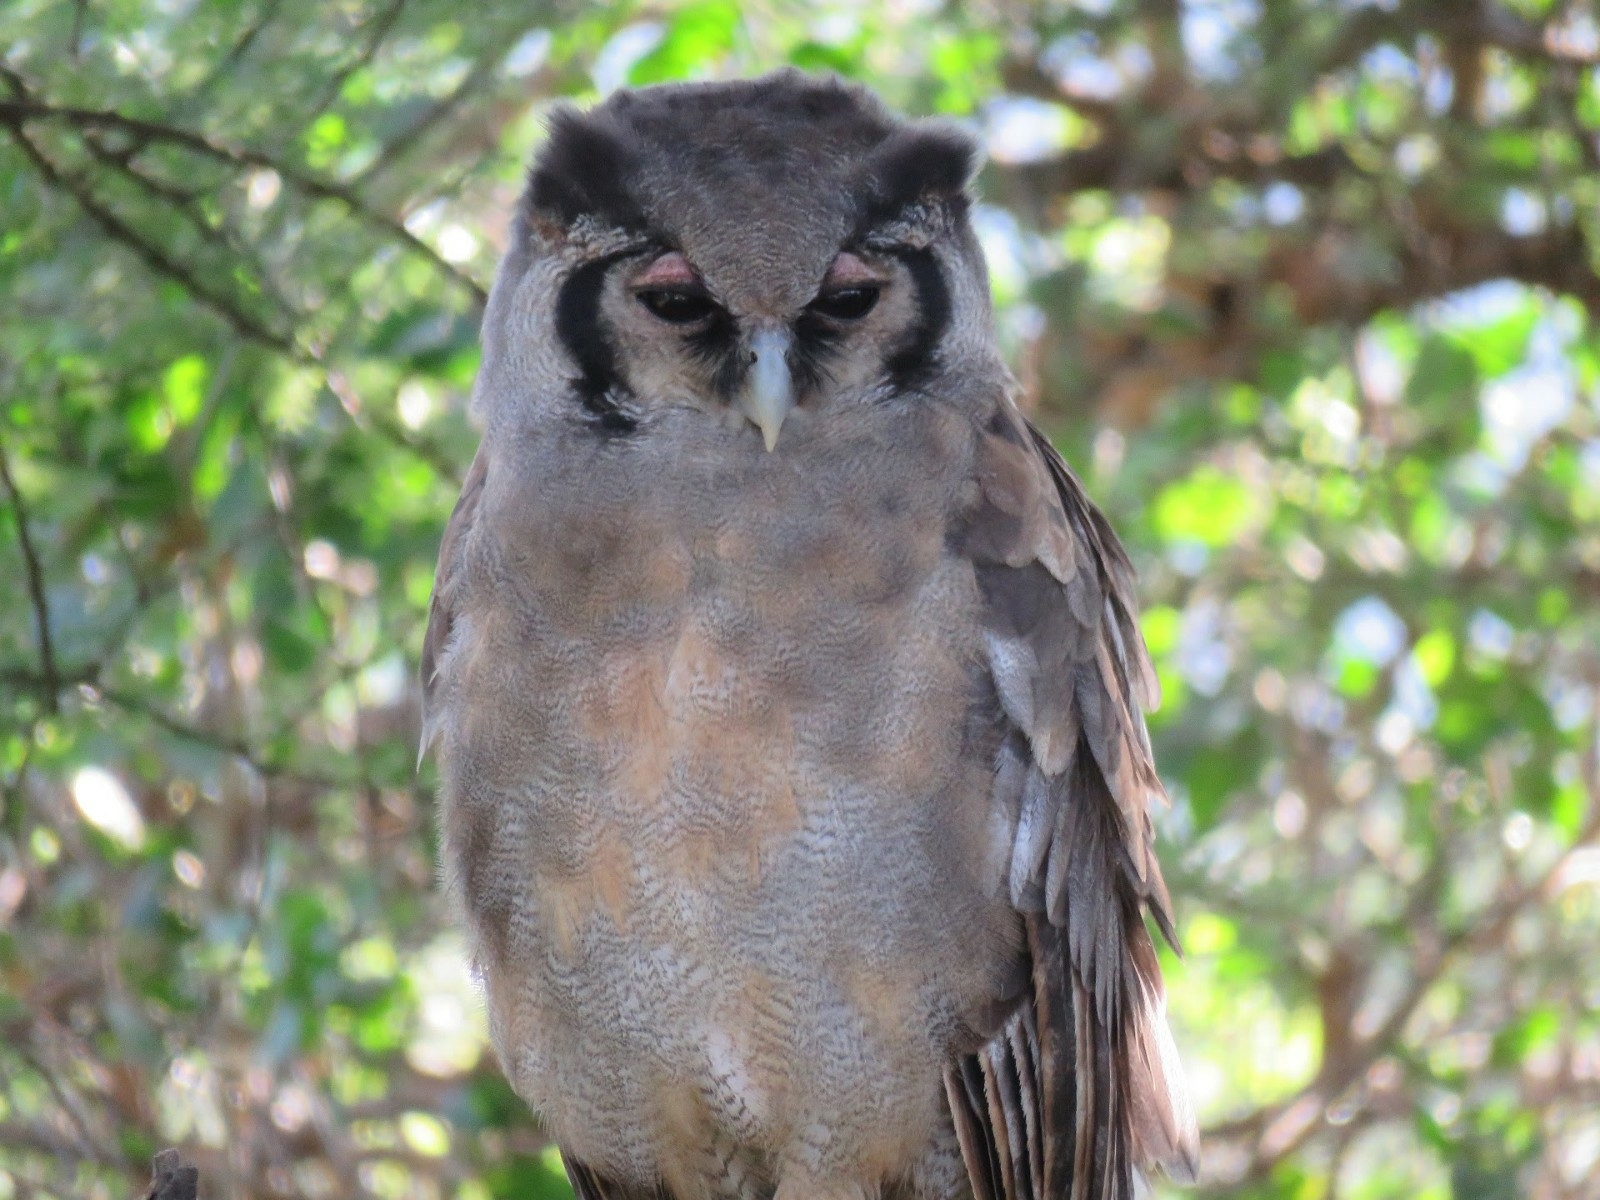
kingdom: Animalia
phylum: Chordata
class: Aves
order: Strigiformes
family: Strigidae
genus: Bubo
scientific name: Bubo lacteus
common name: Verreaux's eagle-owl
